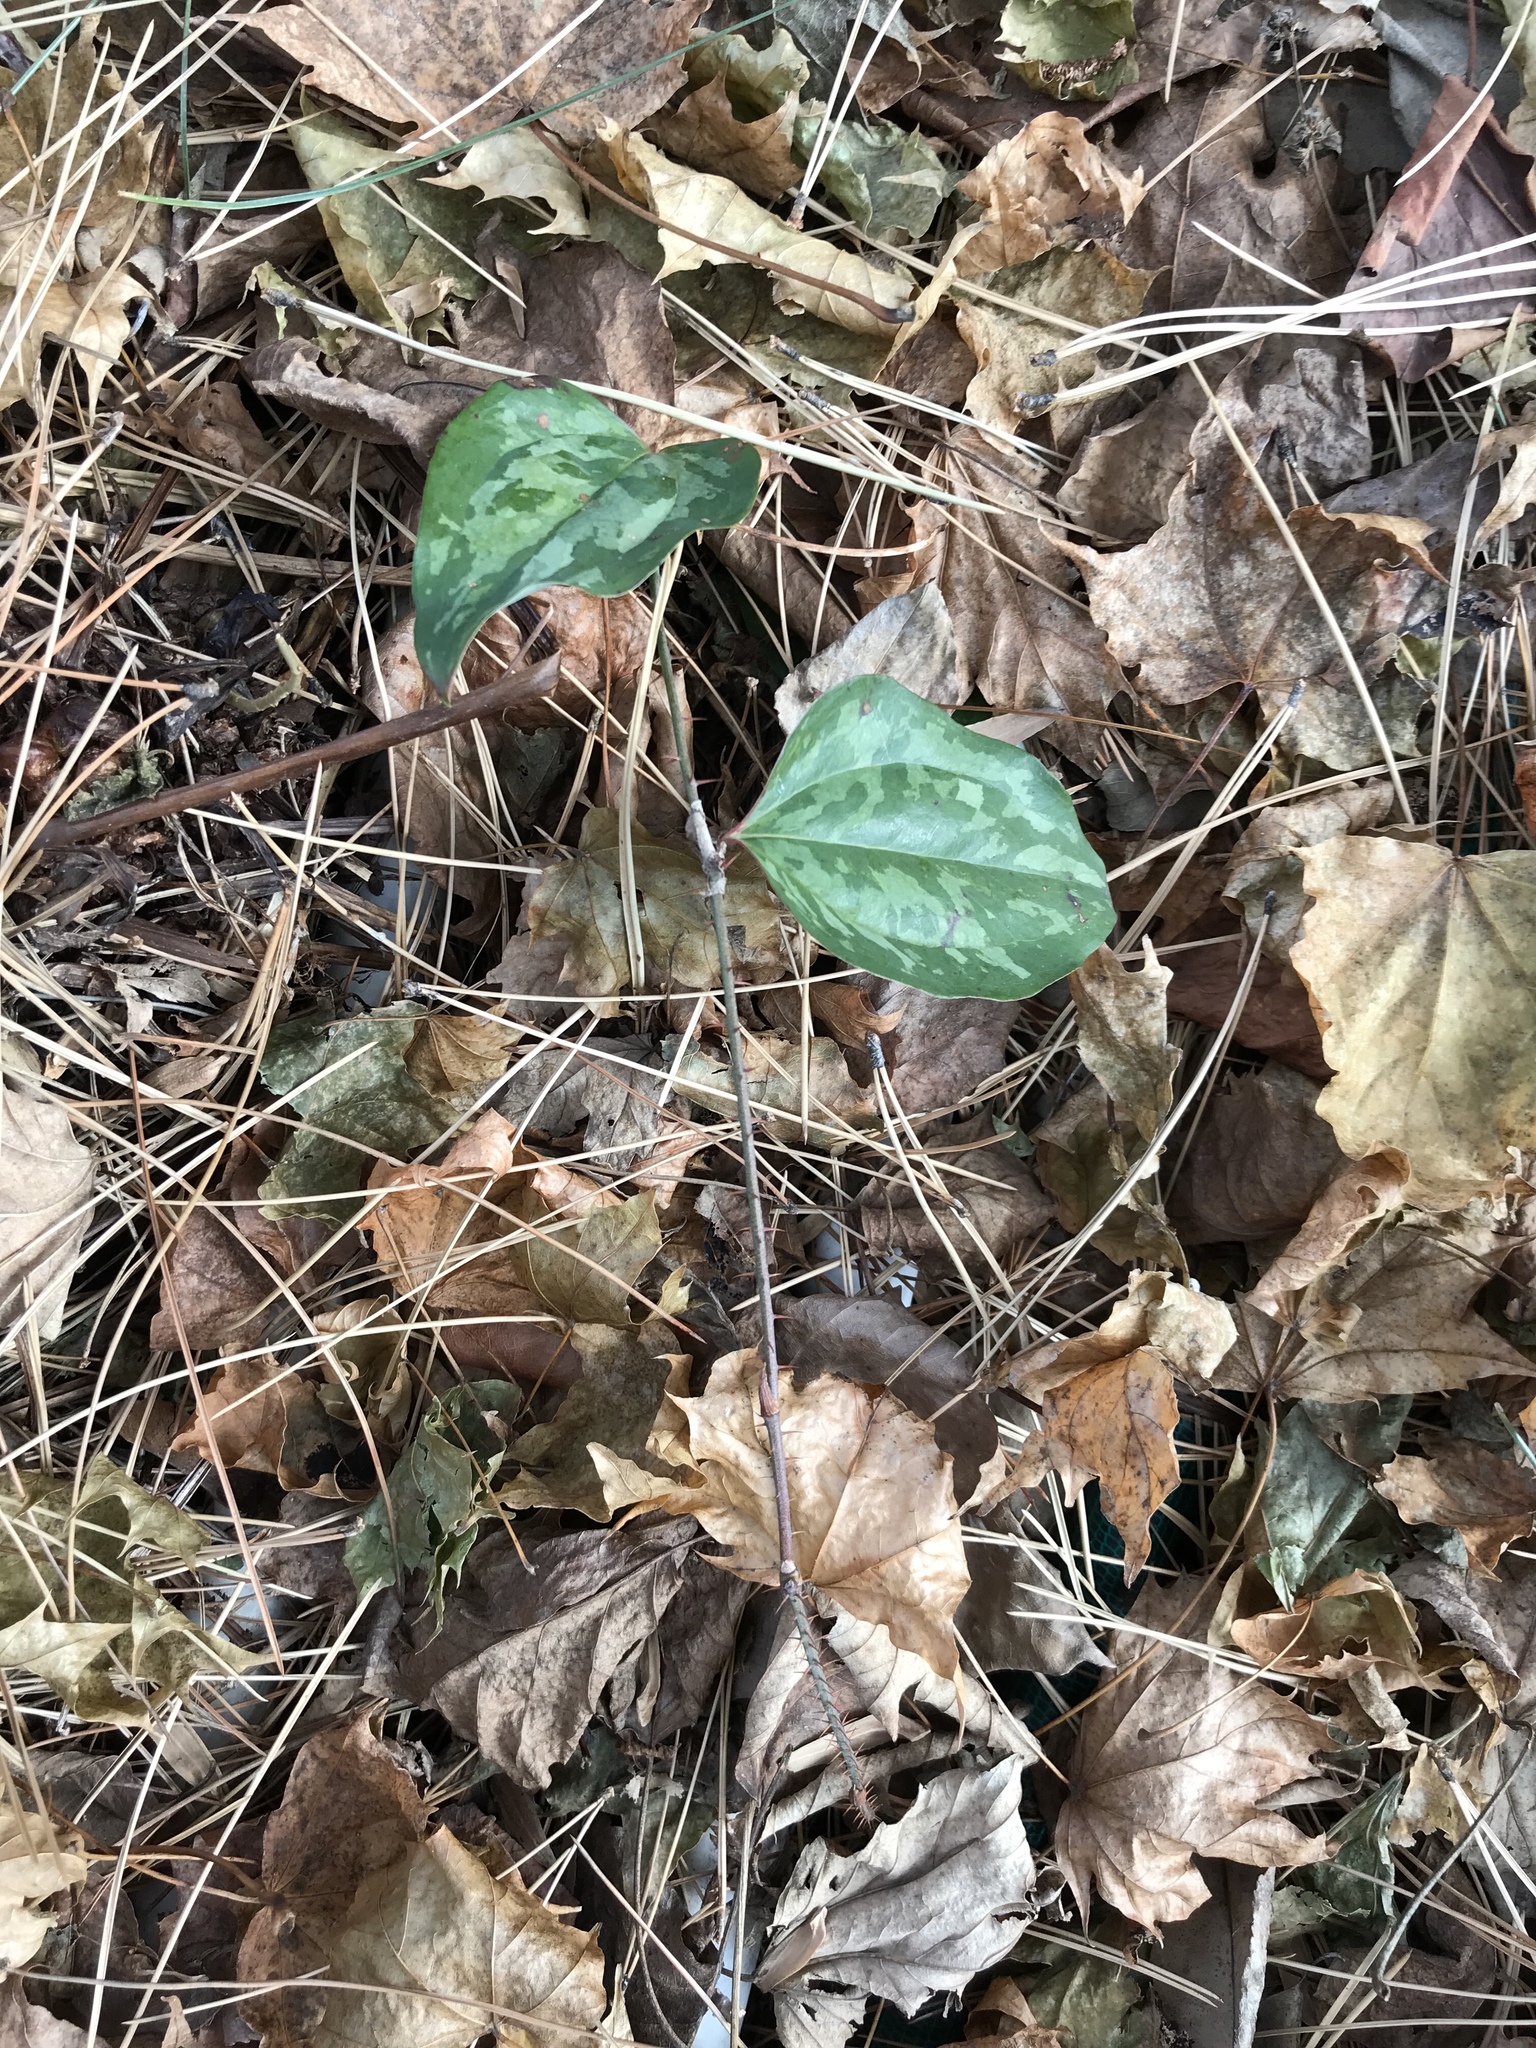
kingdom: Plantae
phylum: Tracheophyta
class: Liliopsida
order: Liliales
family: Smilacaceae
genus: Smilax
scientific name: Smilax glauca
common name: Cat greenbrier
